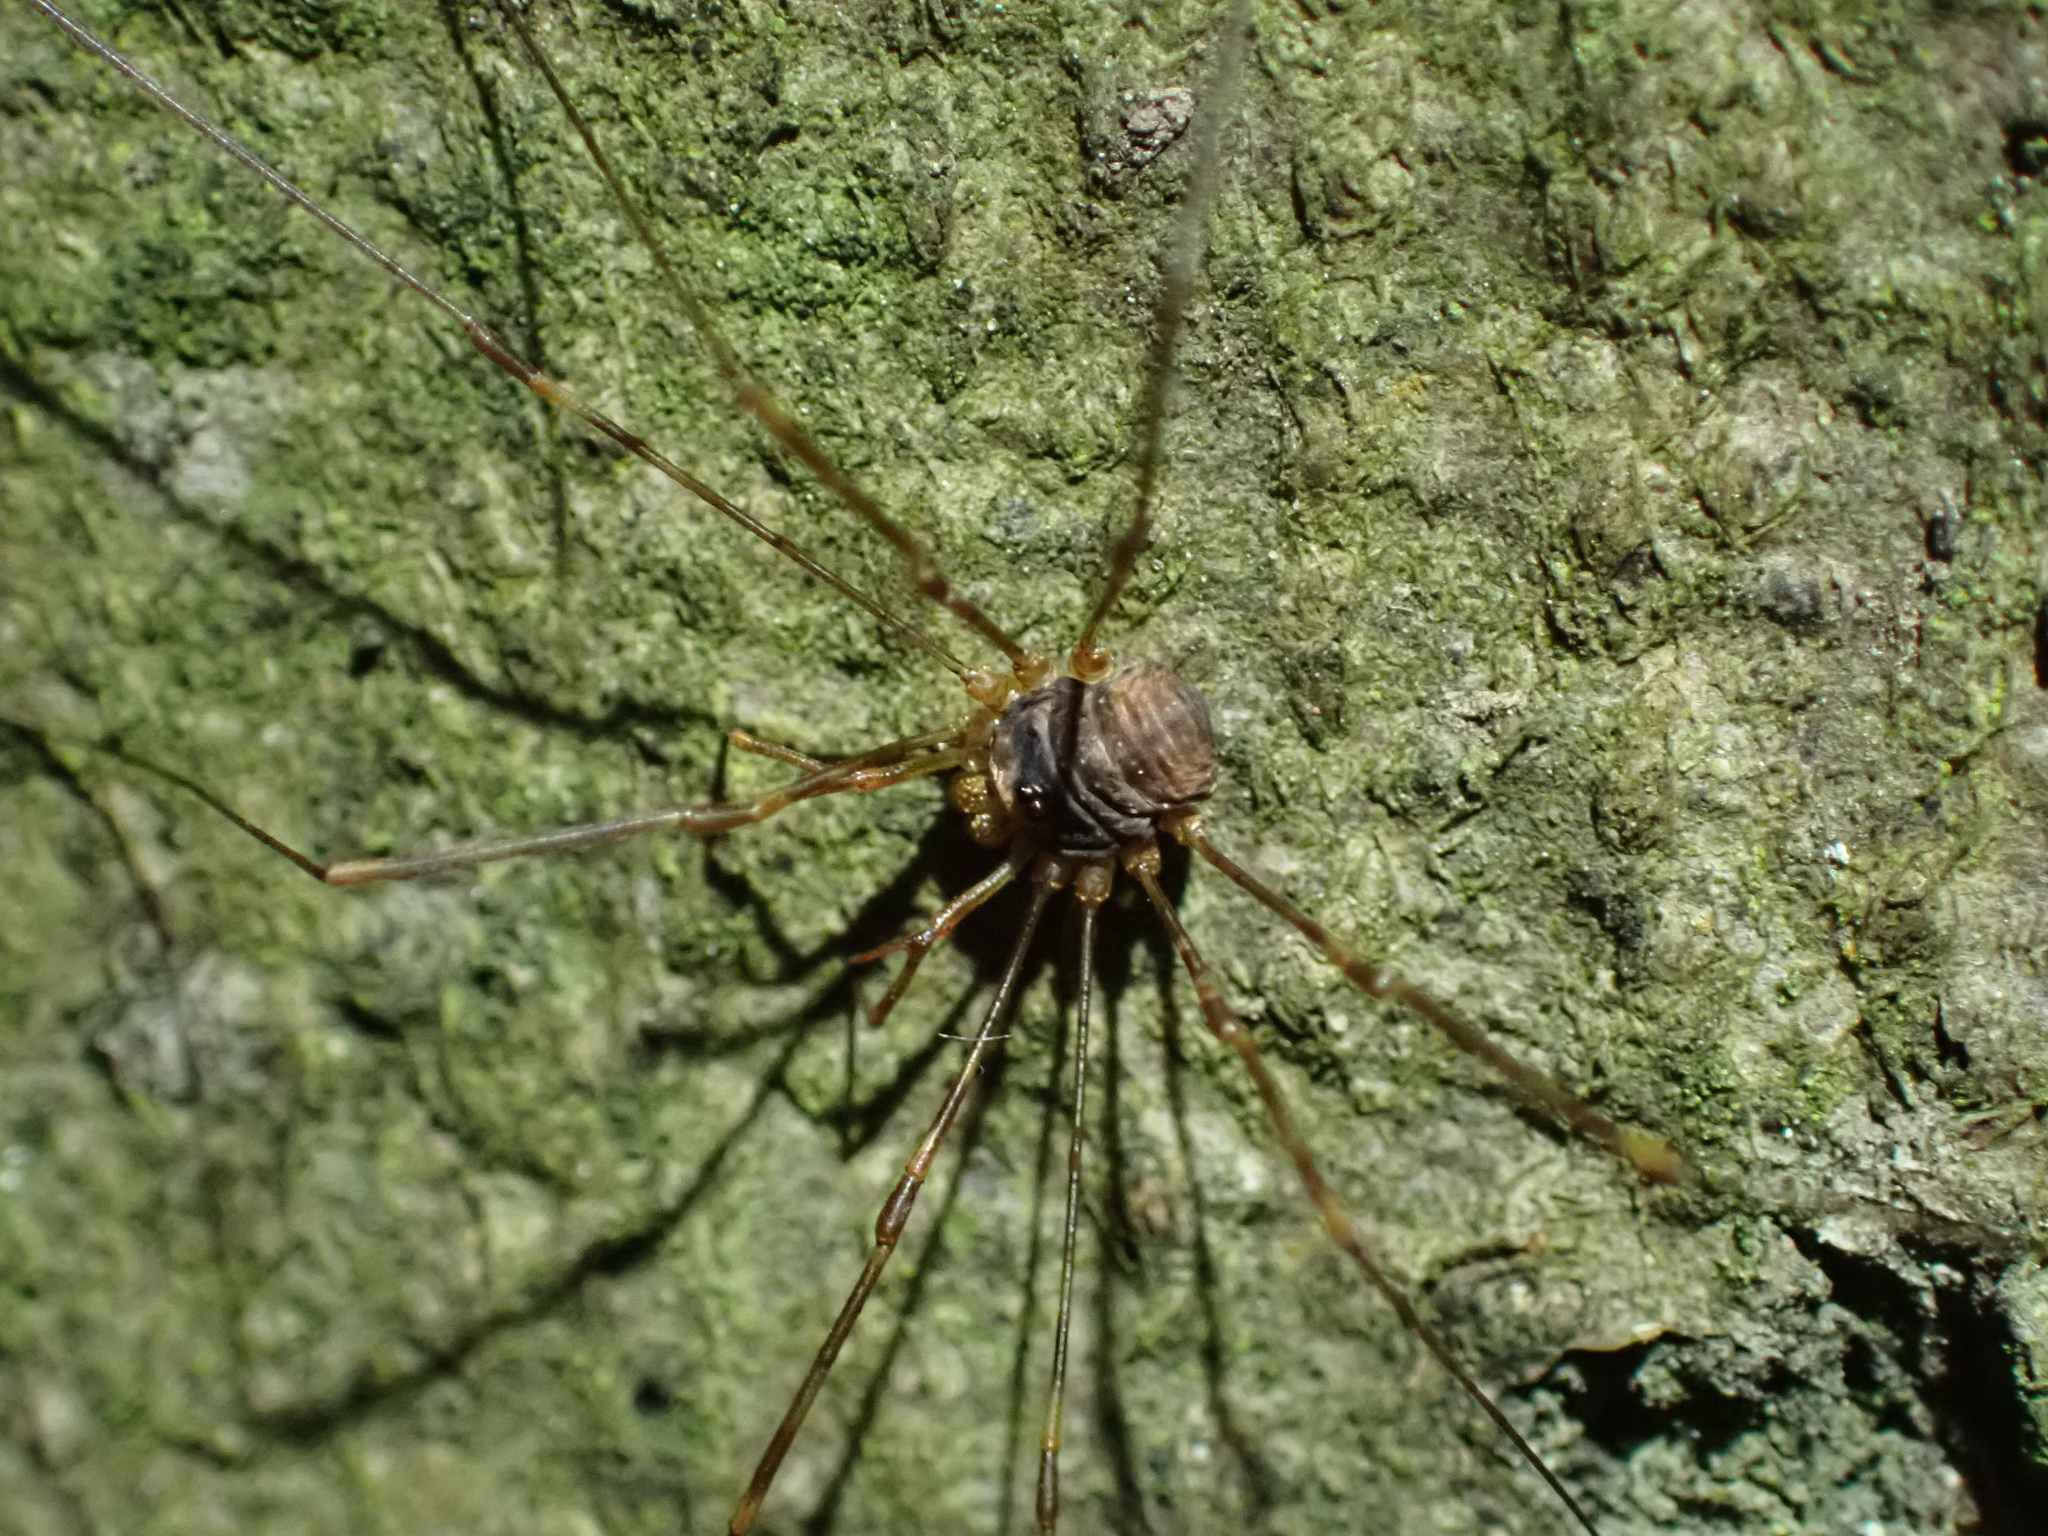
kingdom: Animalia
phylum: Arthropoda
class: Arachnida
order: Opiliones
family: Phalangiidae
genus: Dicranopalpus
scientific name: Dicranopalpus ramosus
